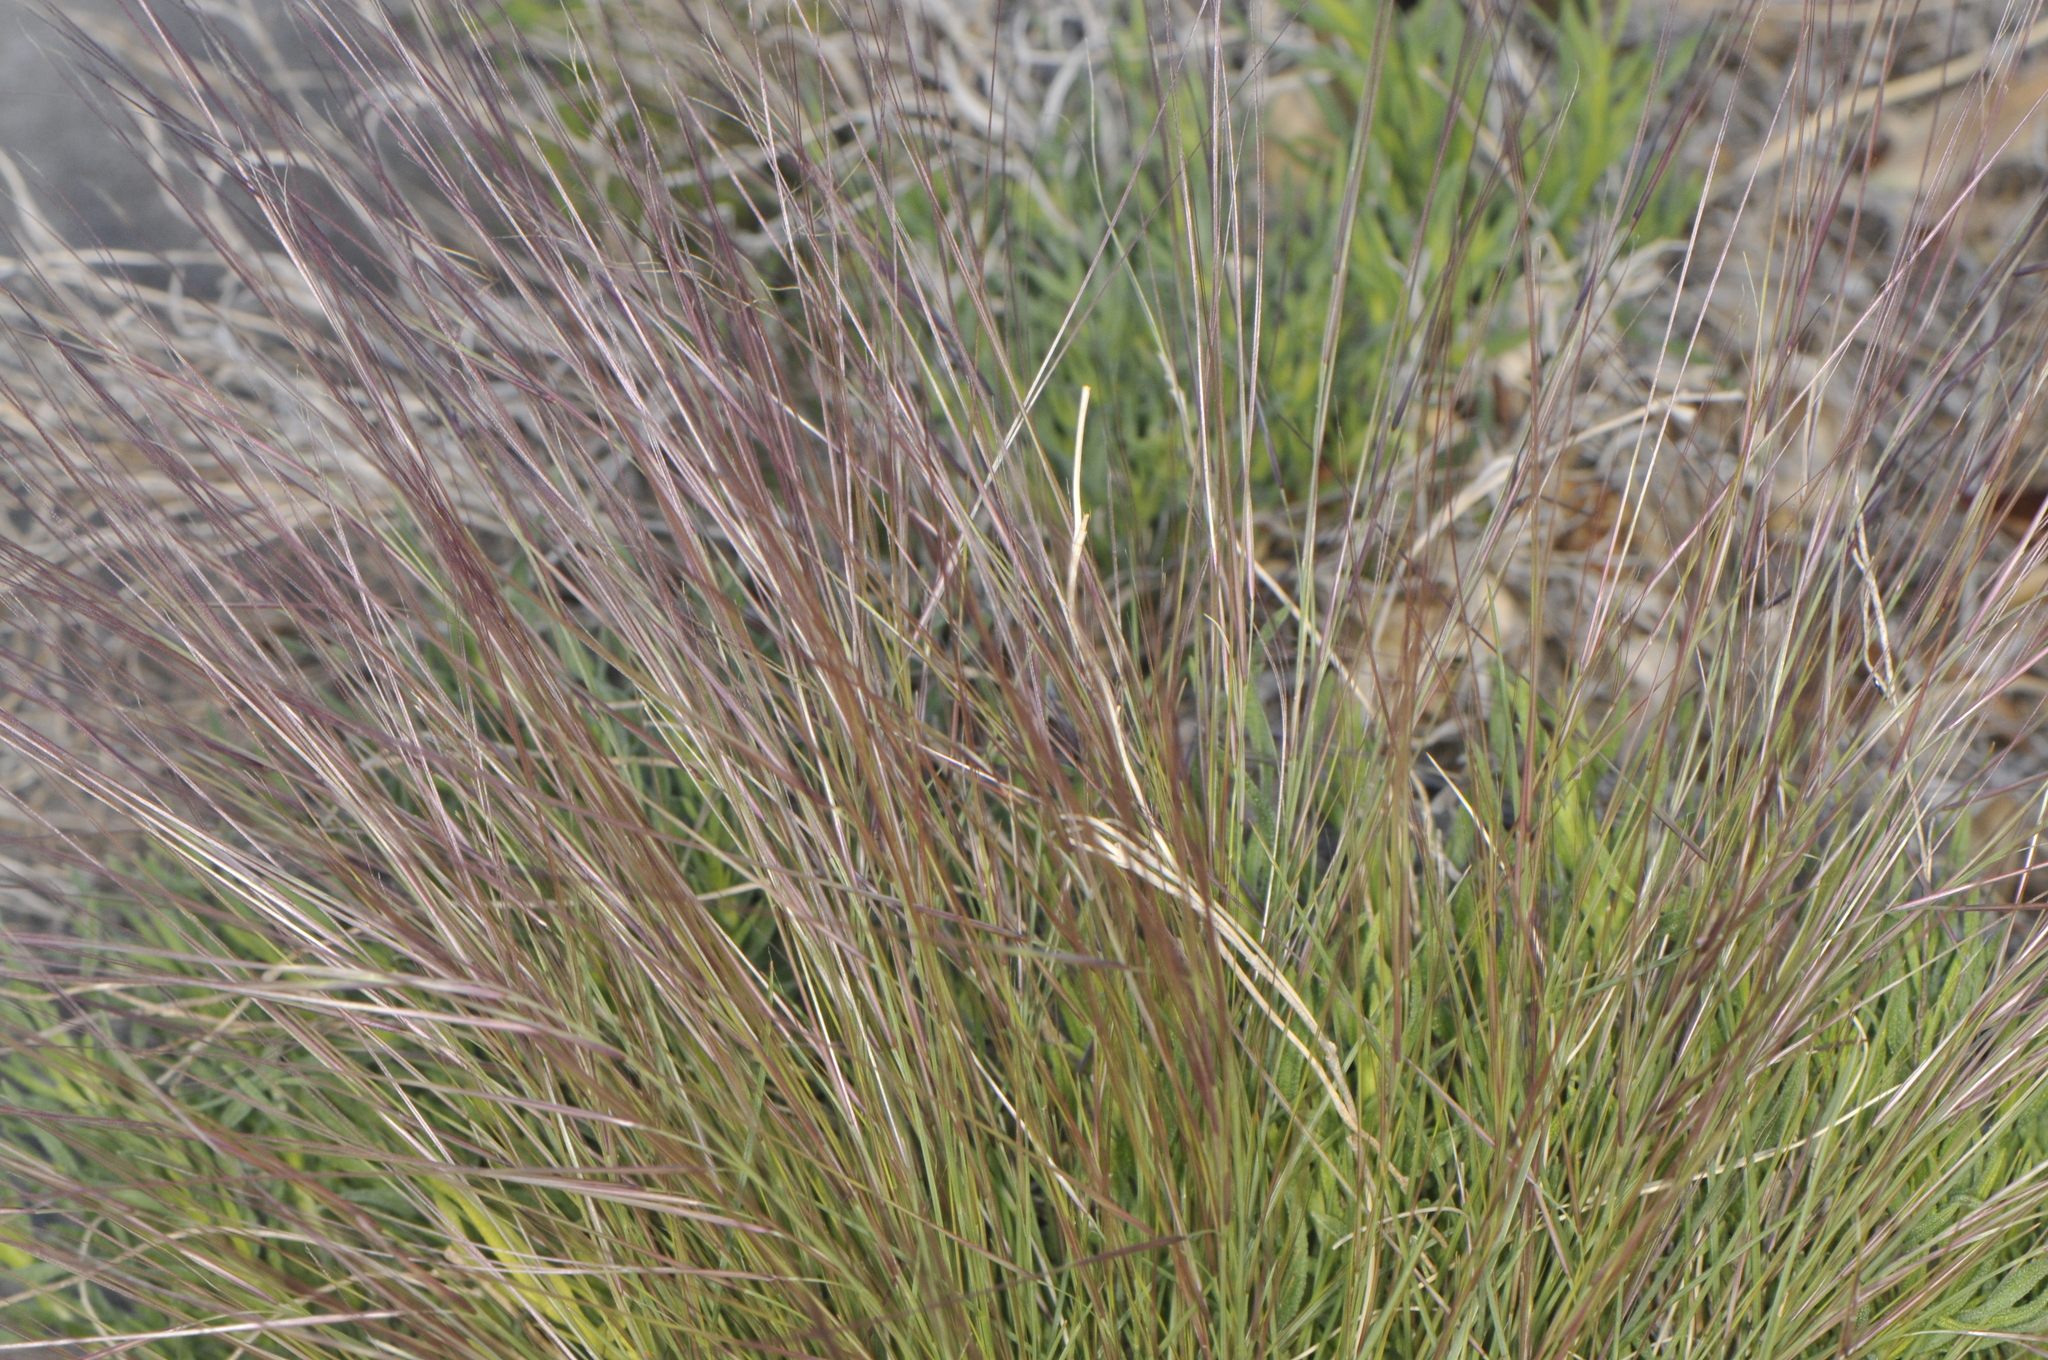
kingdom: Plantae
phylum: Tracheophyta
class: Liliopsida
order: Poales
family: Poaceae
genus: Aristida
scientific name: Aristida purpurea
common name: Purple threeawn
